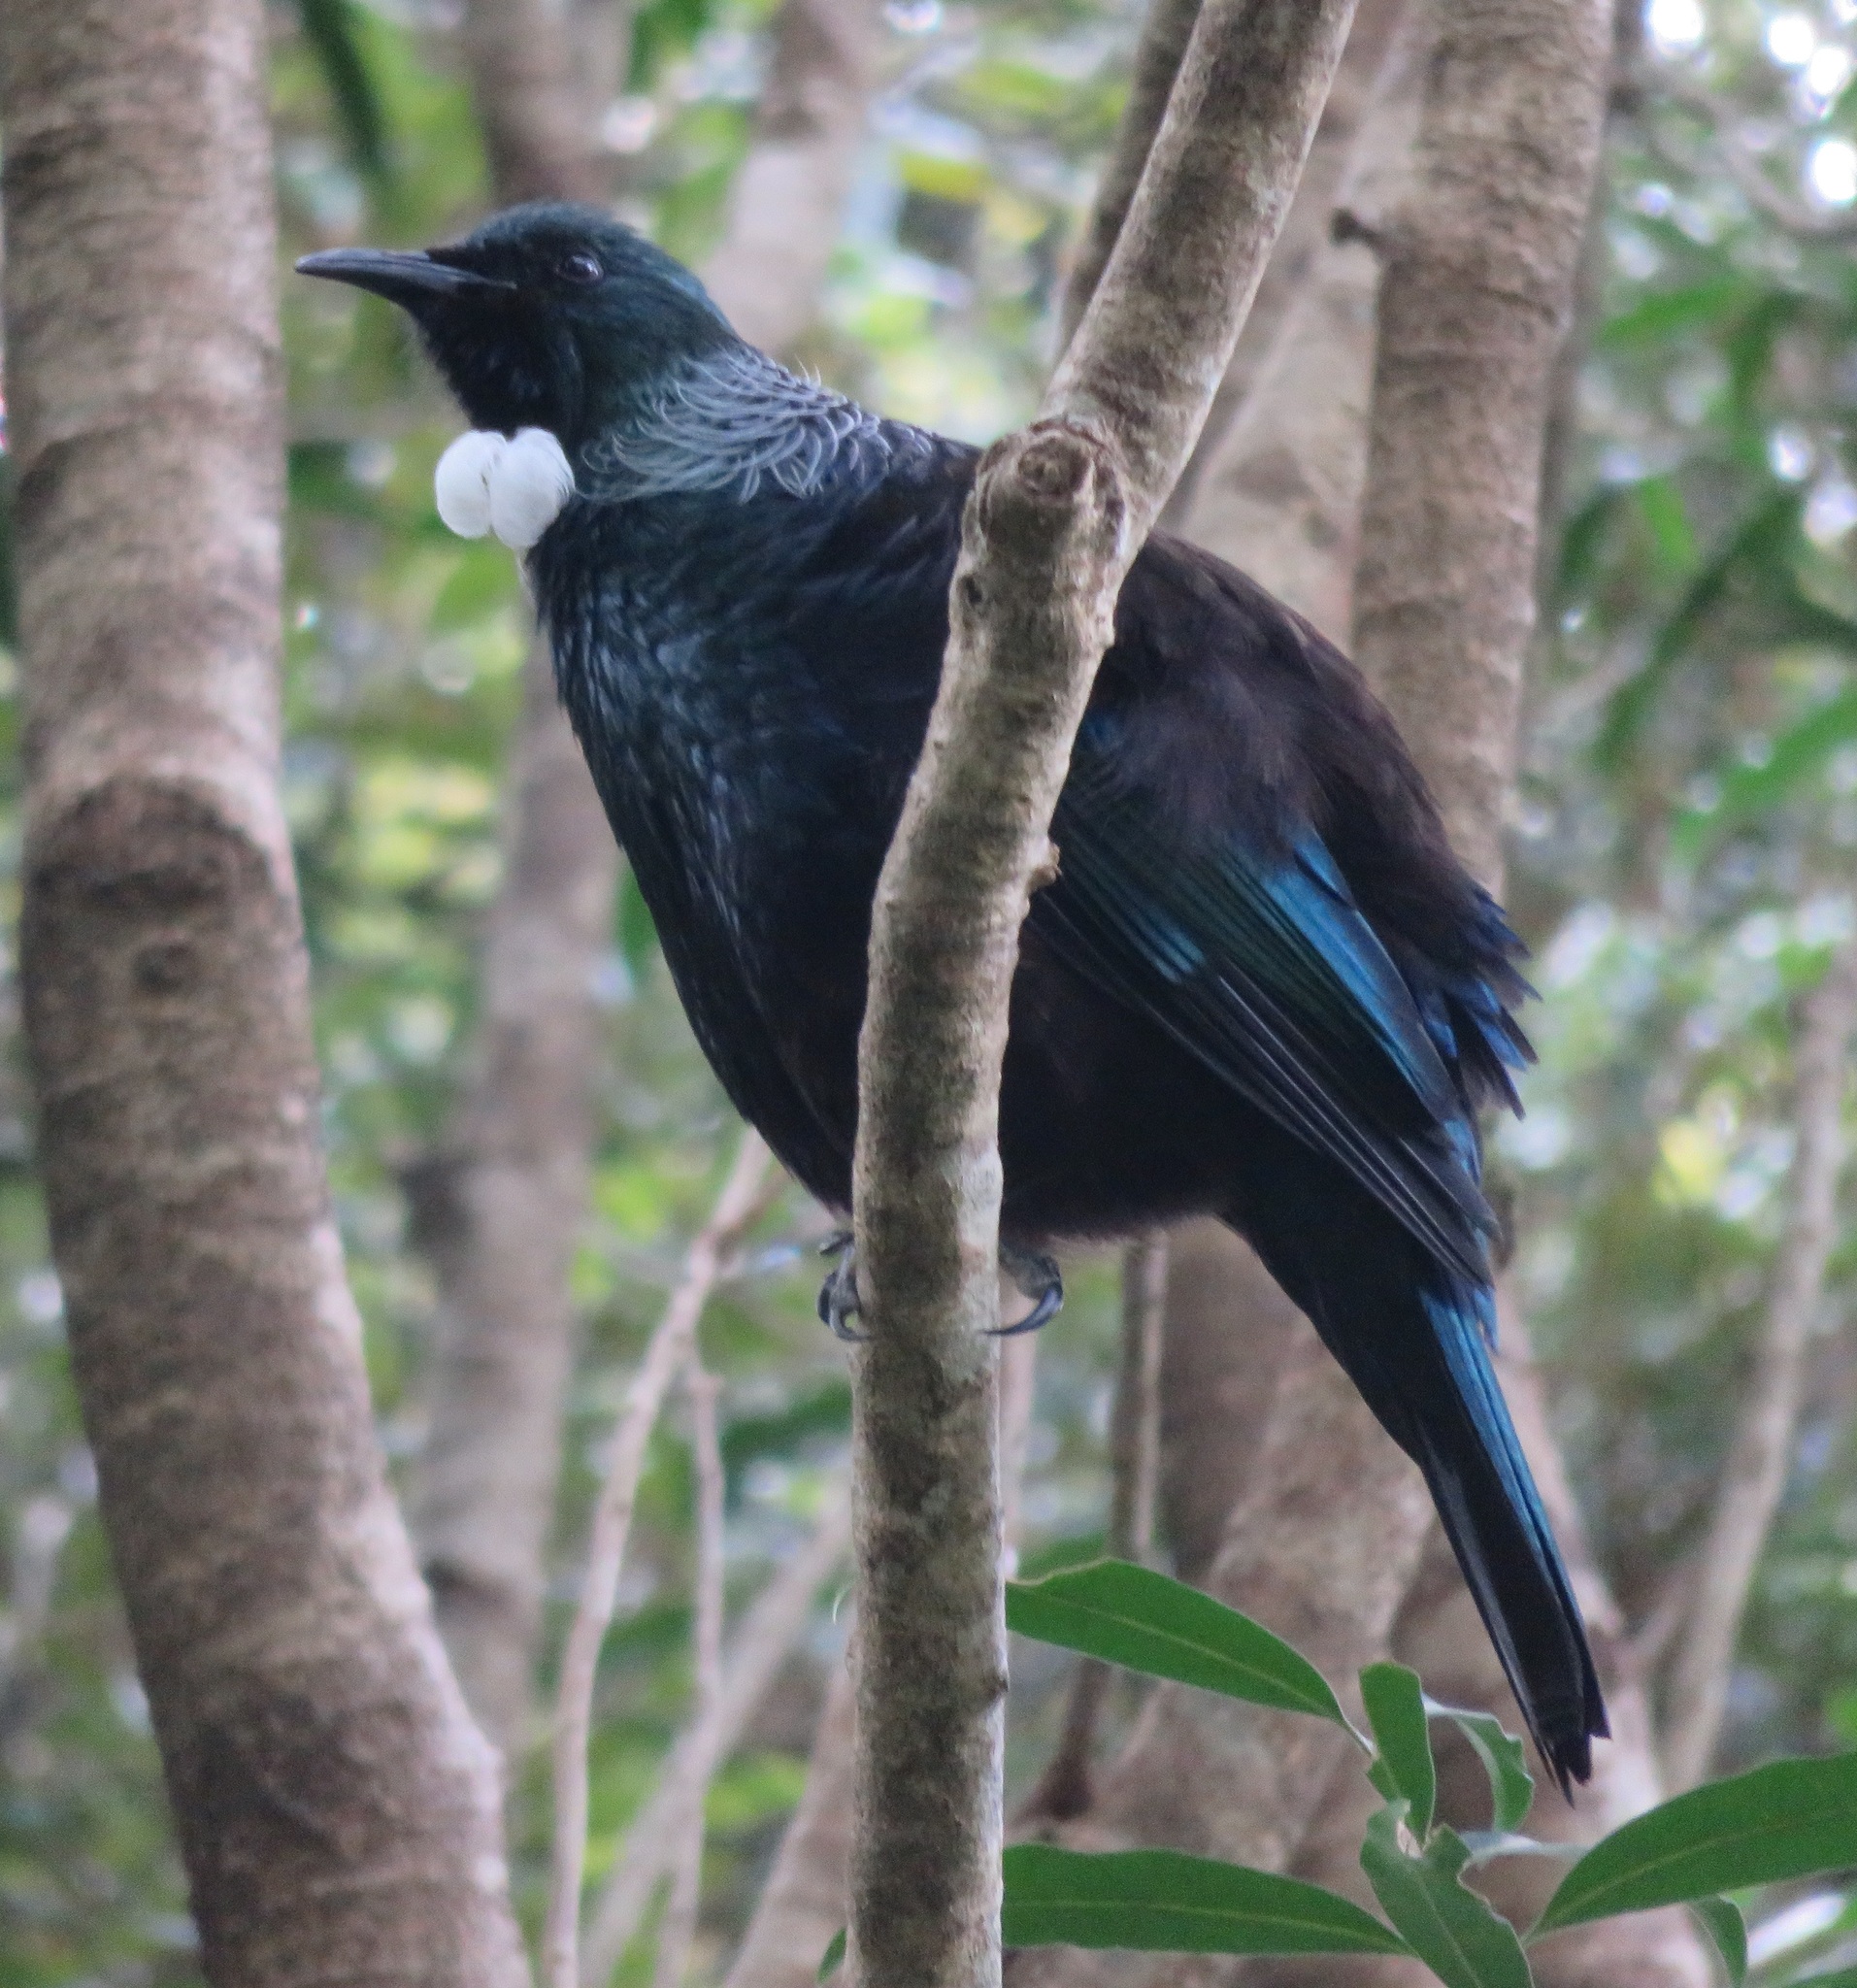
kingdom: Animalia
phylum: Chordata
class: Aves
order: Passeriformes
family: Meliphagidae
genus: Prosthemadera
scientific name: Prosthemadera novaeseelandiae
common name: Tui
